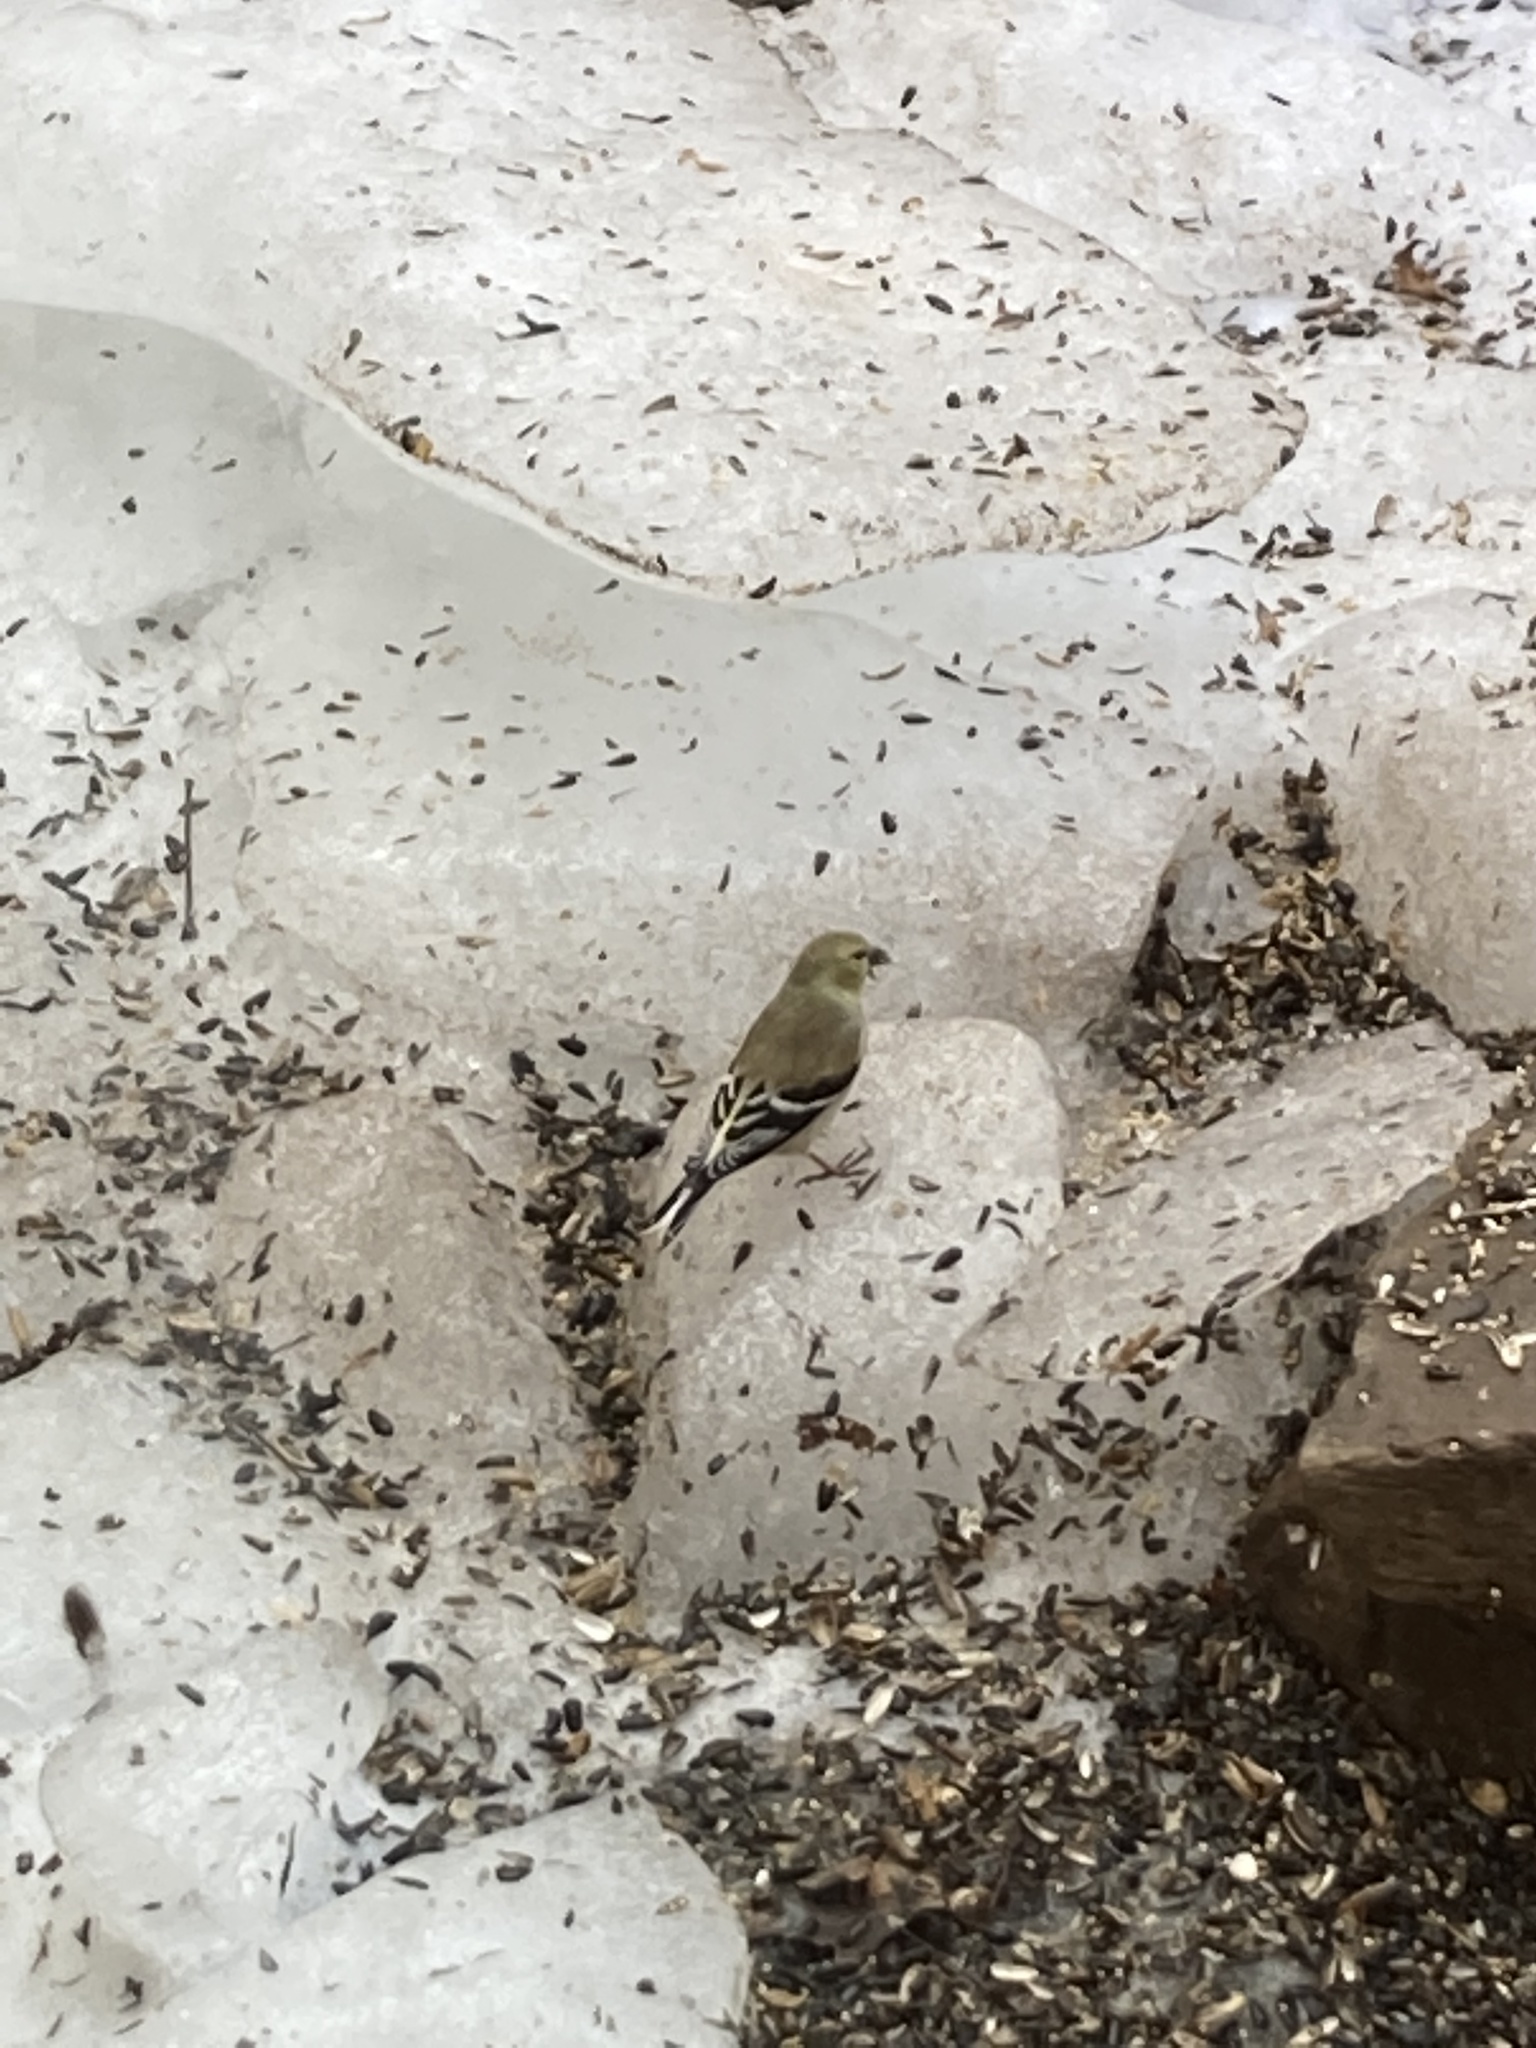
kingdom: Animalia
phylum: Chordata
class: Aves
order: Passeriformes
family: Fringillidae
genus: Spinus
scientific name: Spinus tristis
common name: American goldfinch
